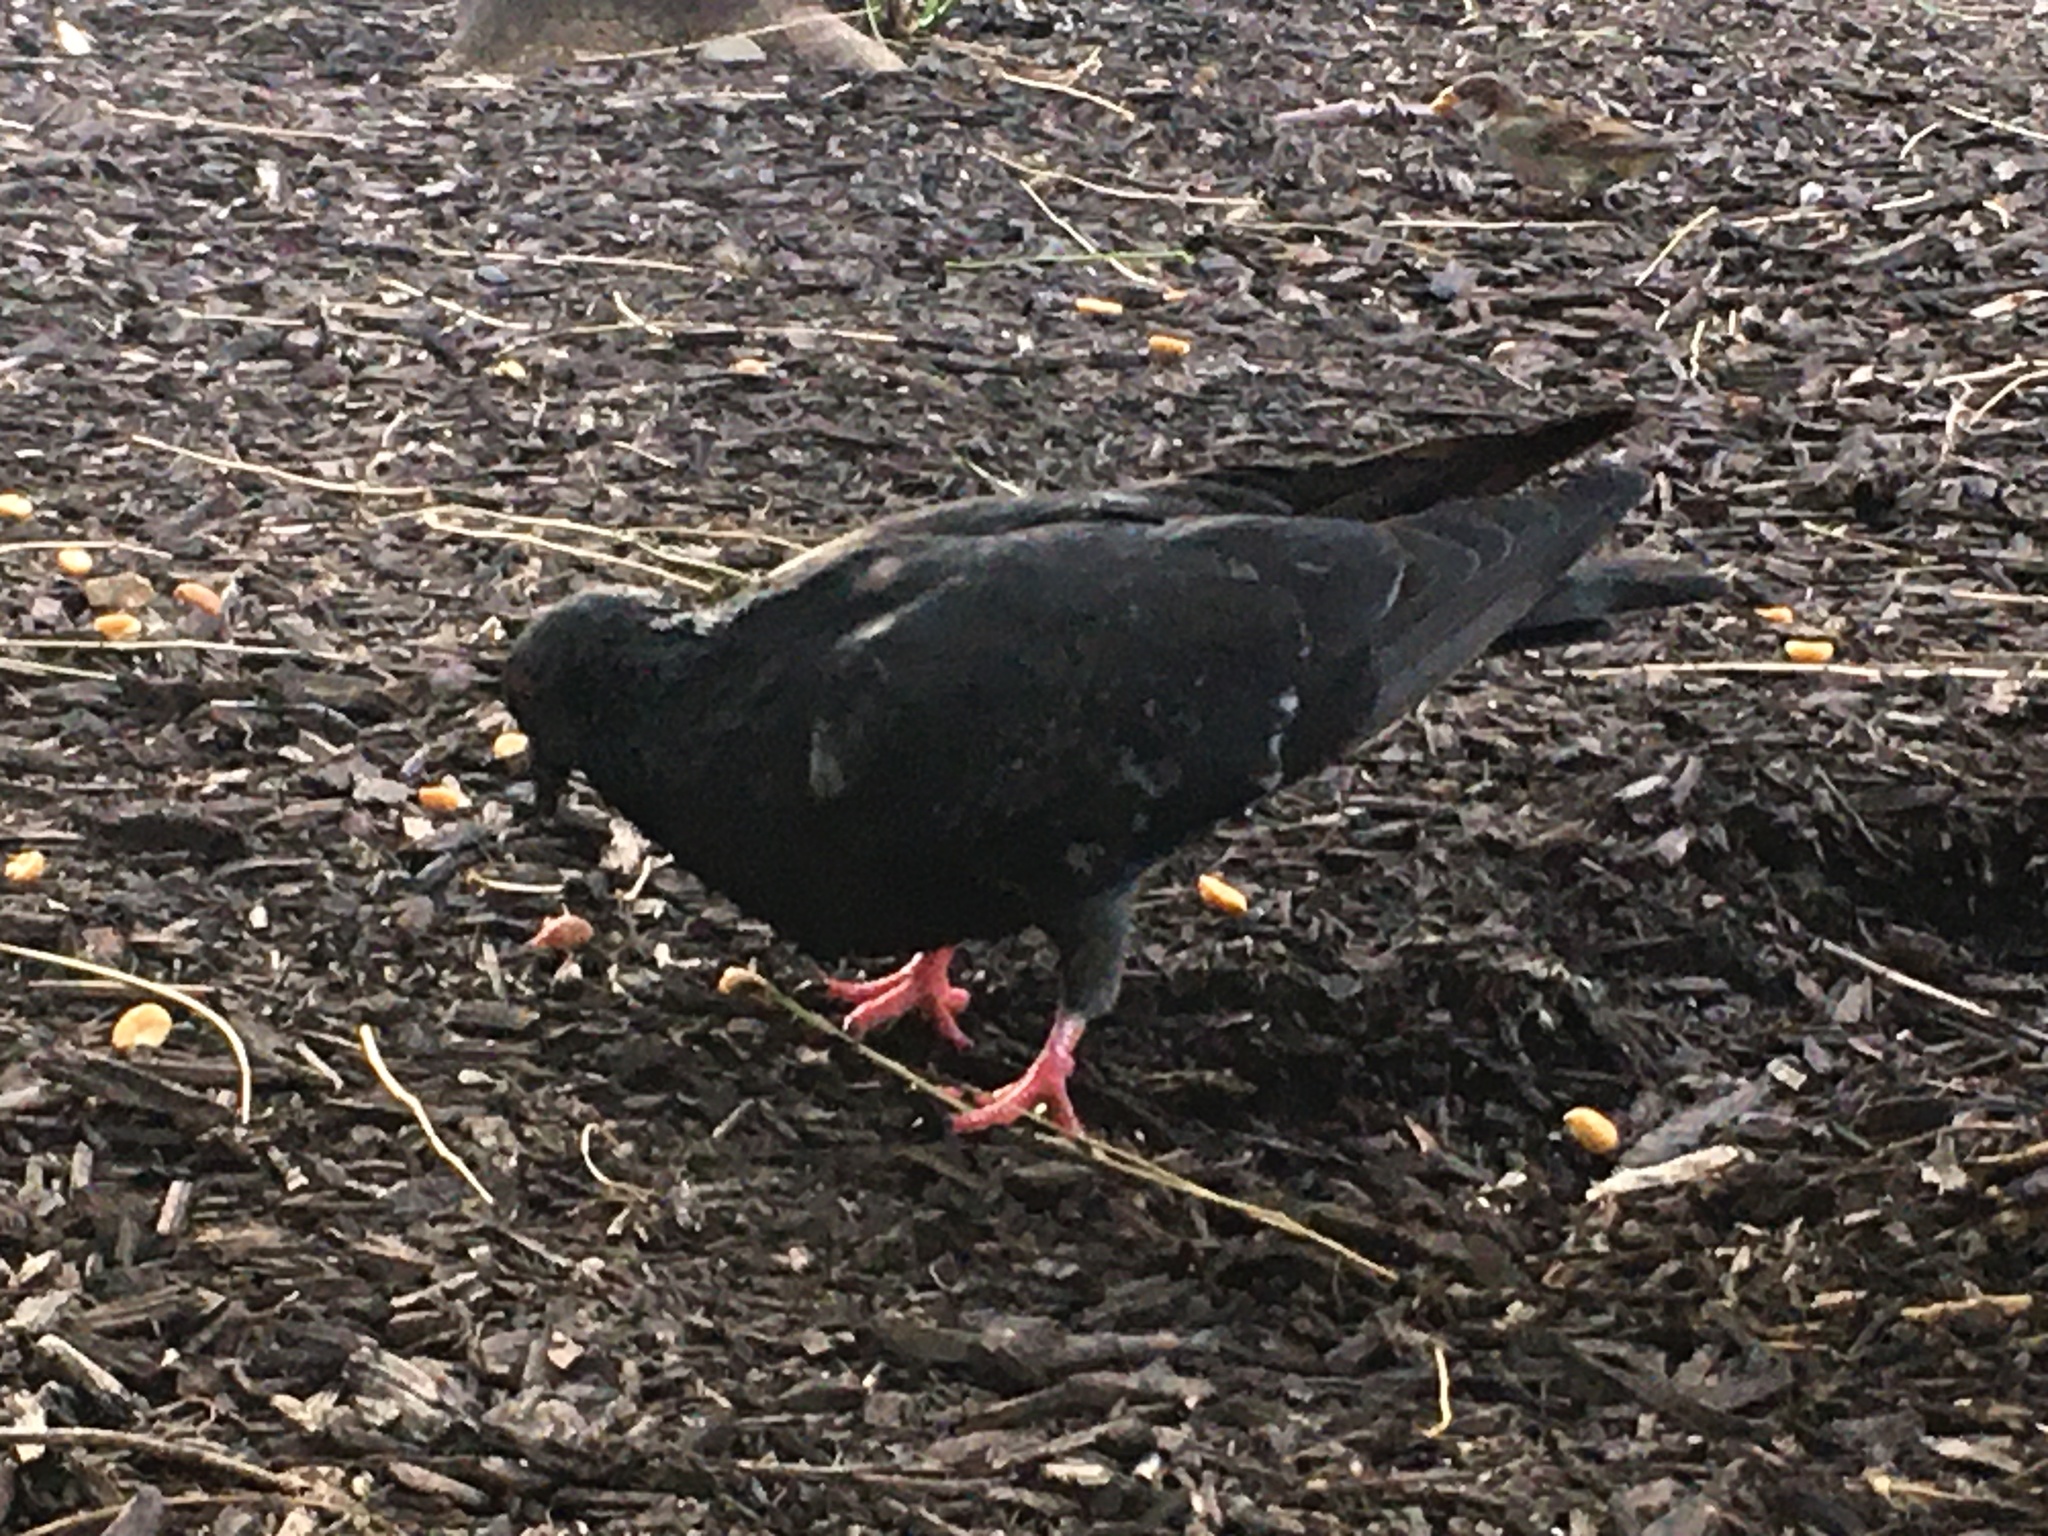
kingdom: Animalia
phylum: Chordata
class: Aves
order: Columbiformes
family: Columbidae
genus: Columba
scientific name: Columba livia
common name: Rock pigeon
